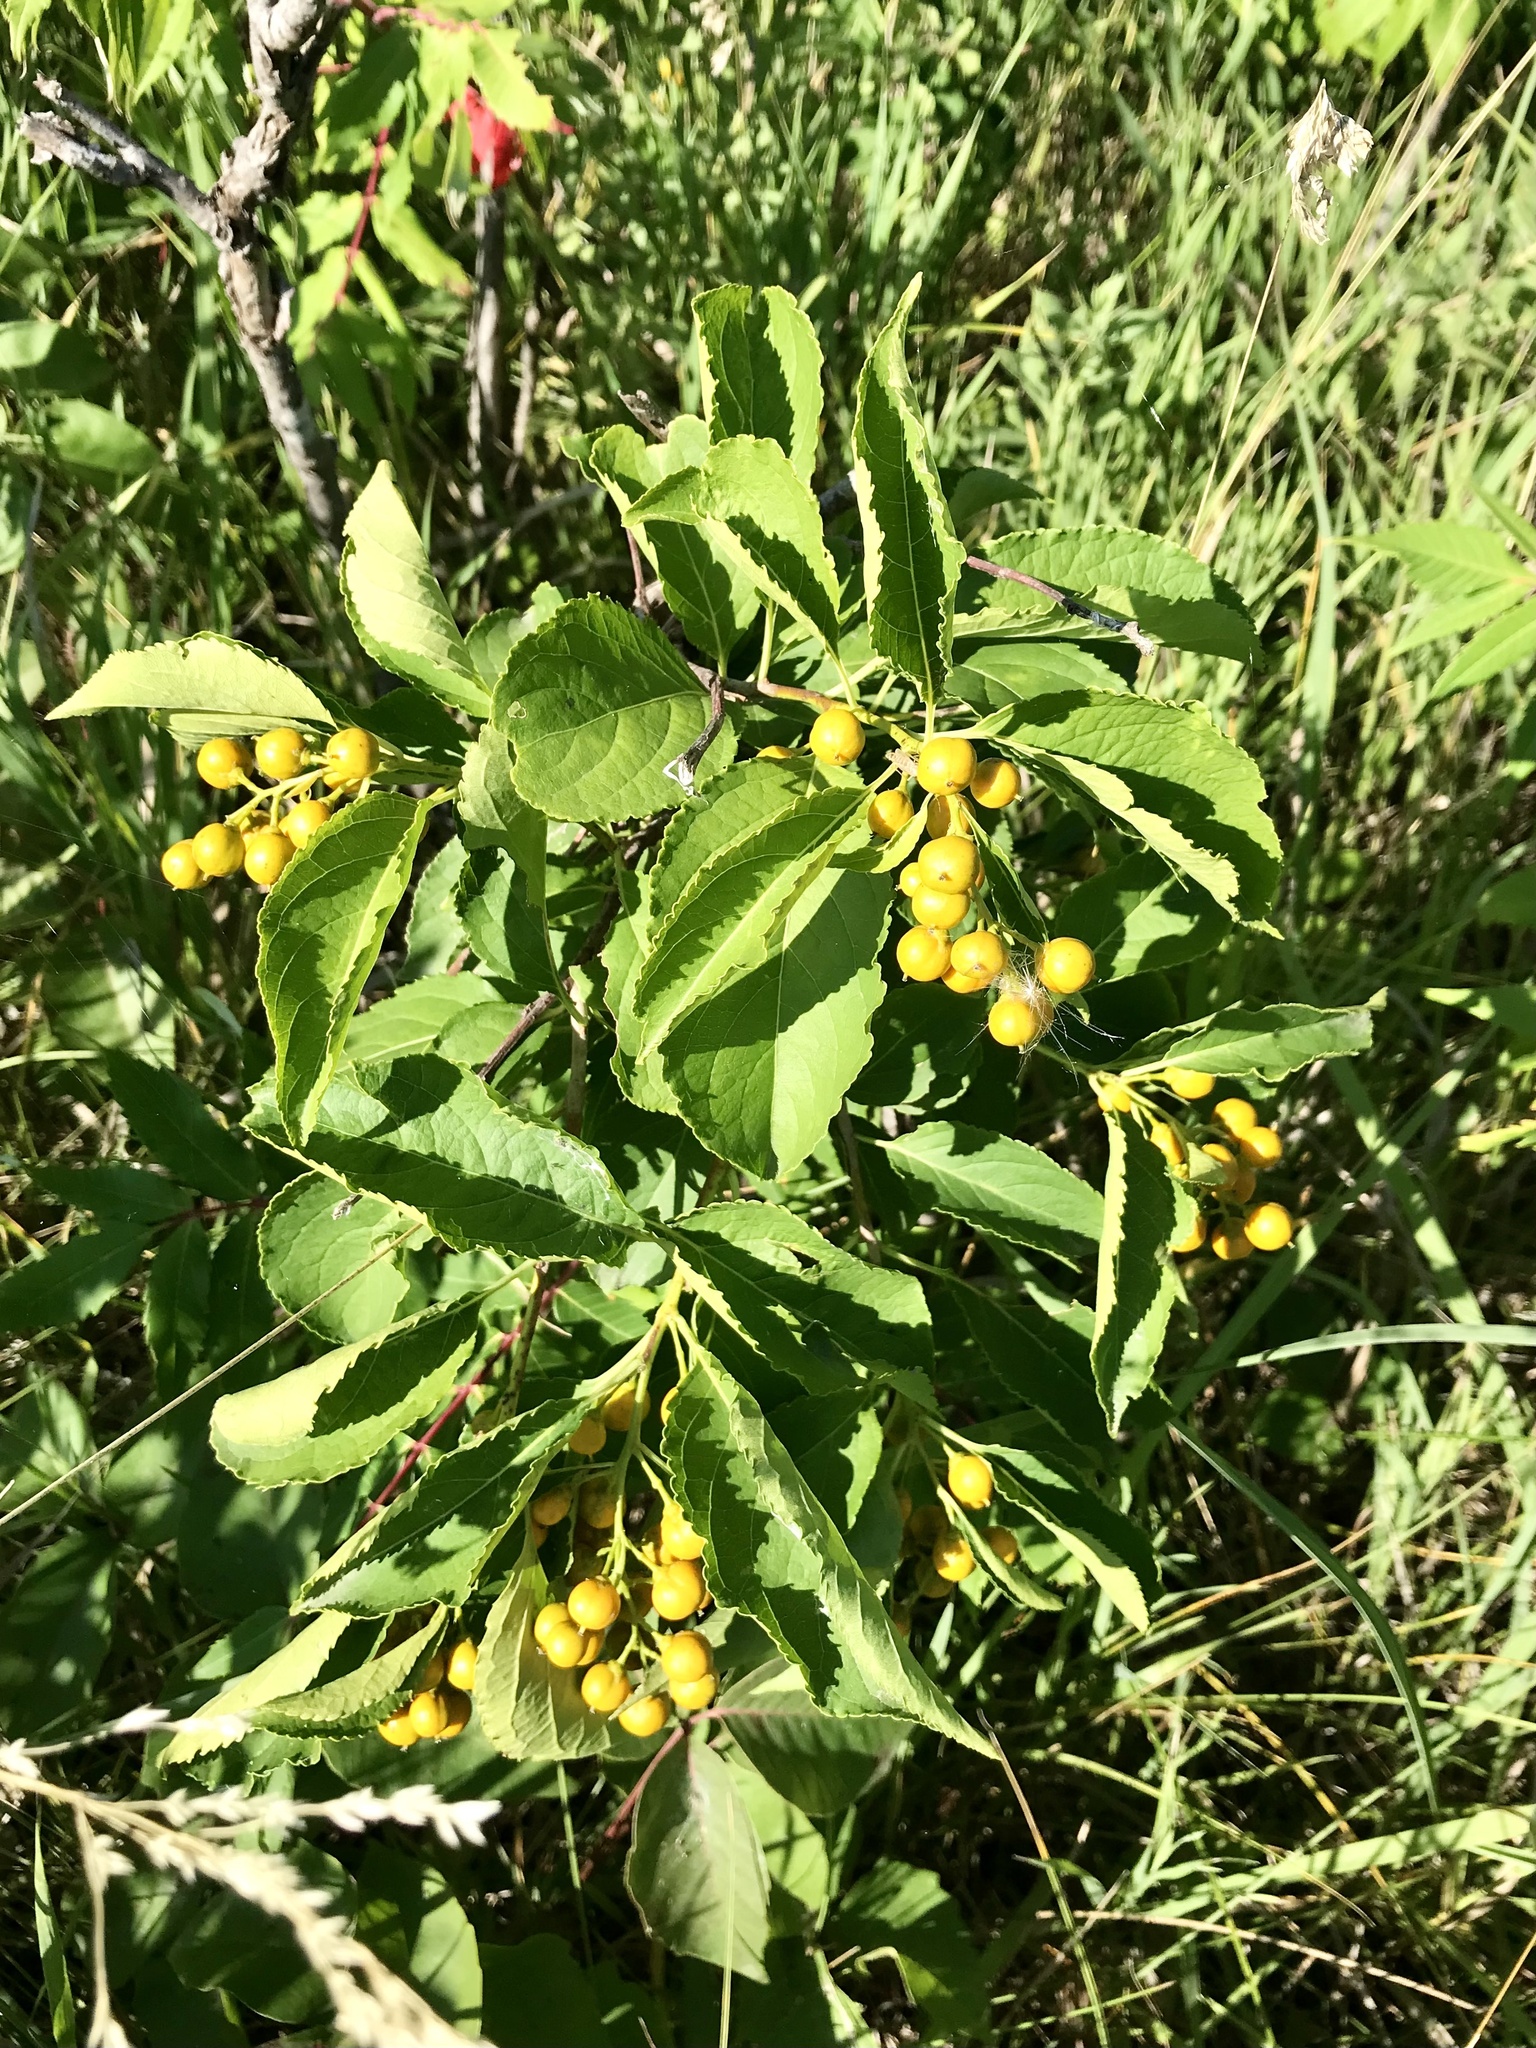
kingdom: Plantae
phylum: Tracheophyta
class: Magnoliopsida
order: Celastrales
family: Celastraceae
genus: Celastrus
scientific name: Celastrus scandens
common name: American bittersweet
